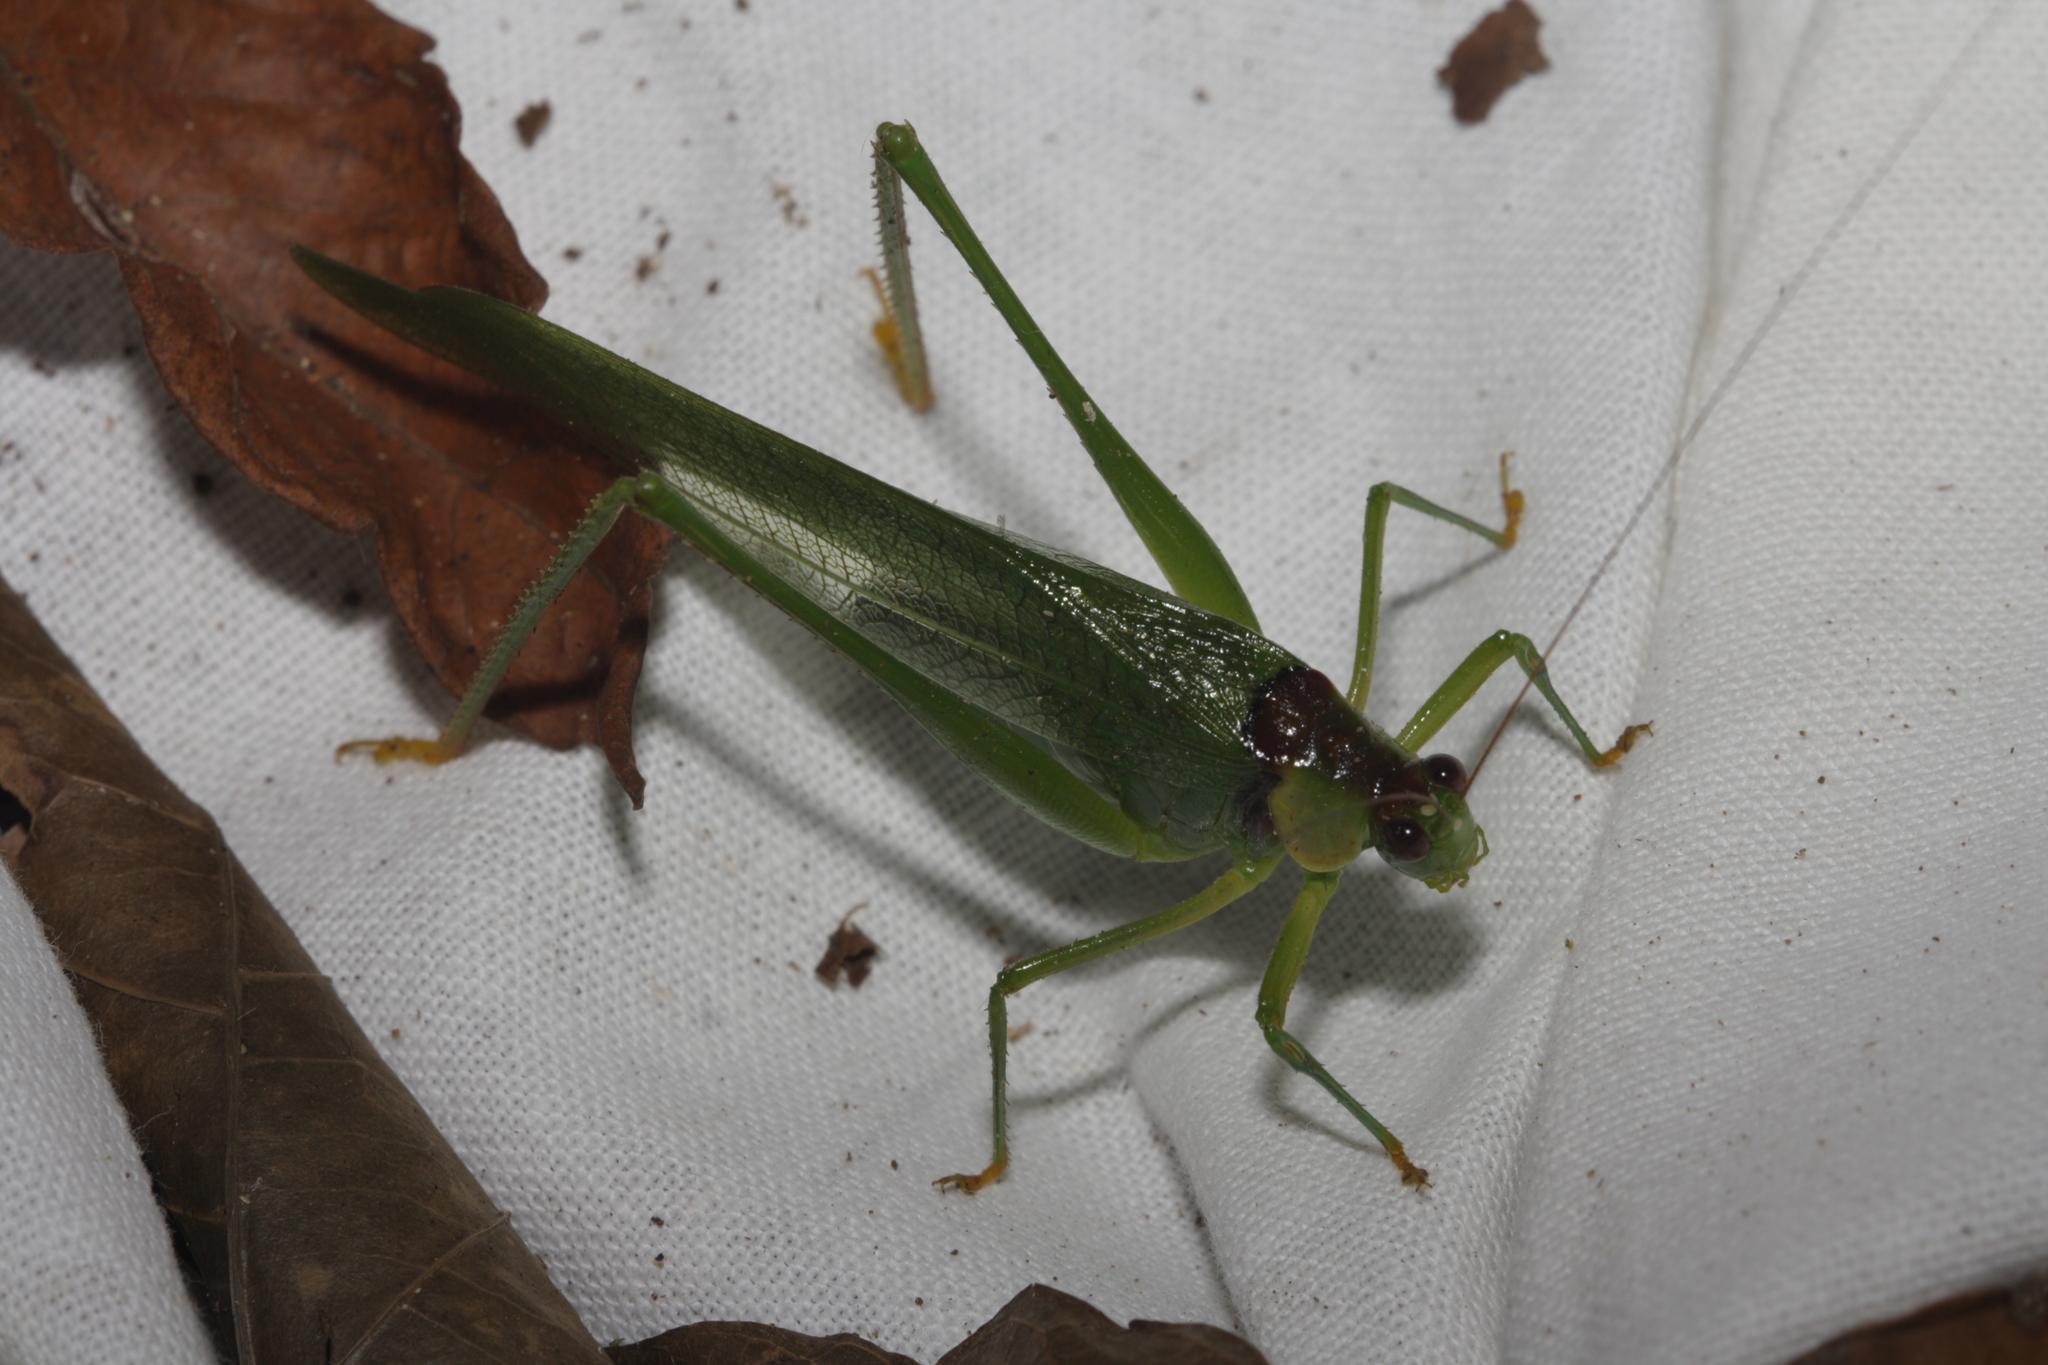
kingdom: Animalia
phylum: Arthropoda
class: Insecta
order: Orthoptera
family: Tettigoniidae
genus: Euceraia
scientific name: Euceraia atryx
